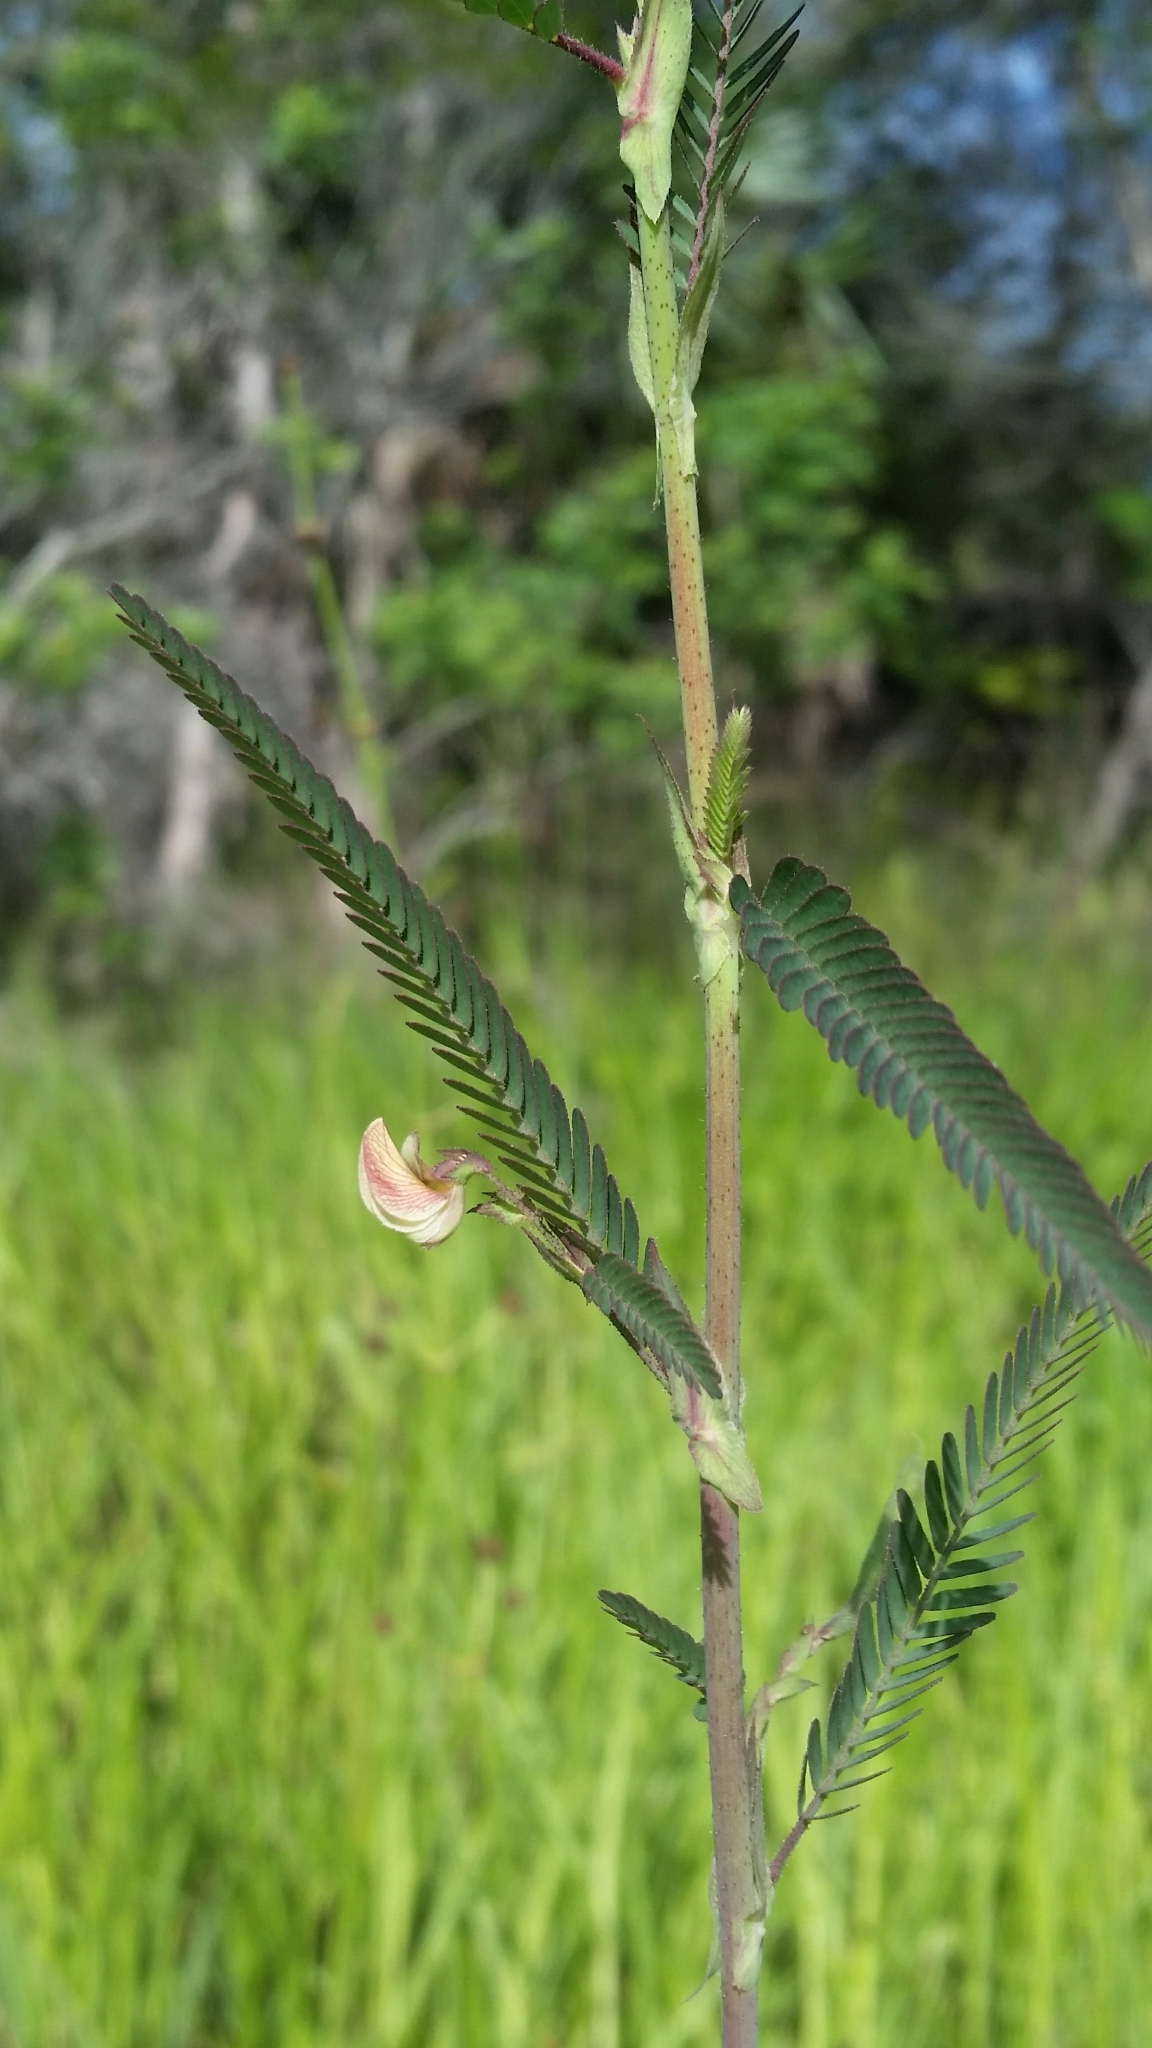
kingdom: Plantae
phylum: Tracheophyta
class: Magnoliopsida
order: Fabales
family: Fabaceae
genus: Aeschynomene
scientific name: Aeschynomene indica
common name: Indian jointvetch
